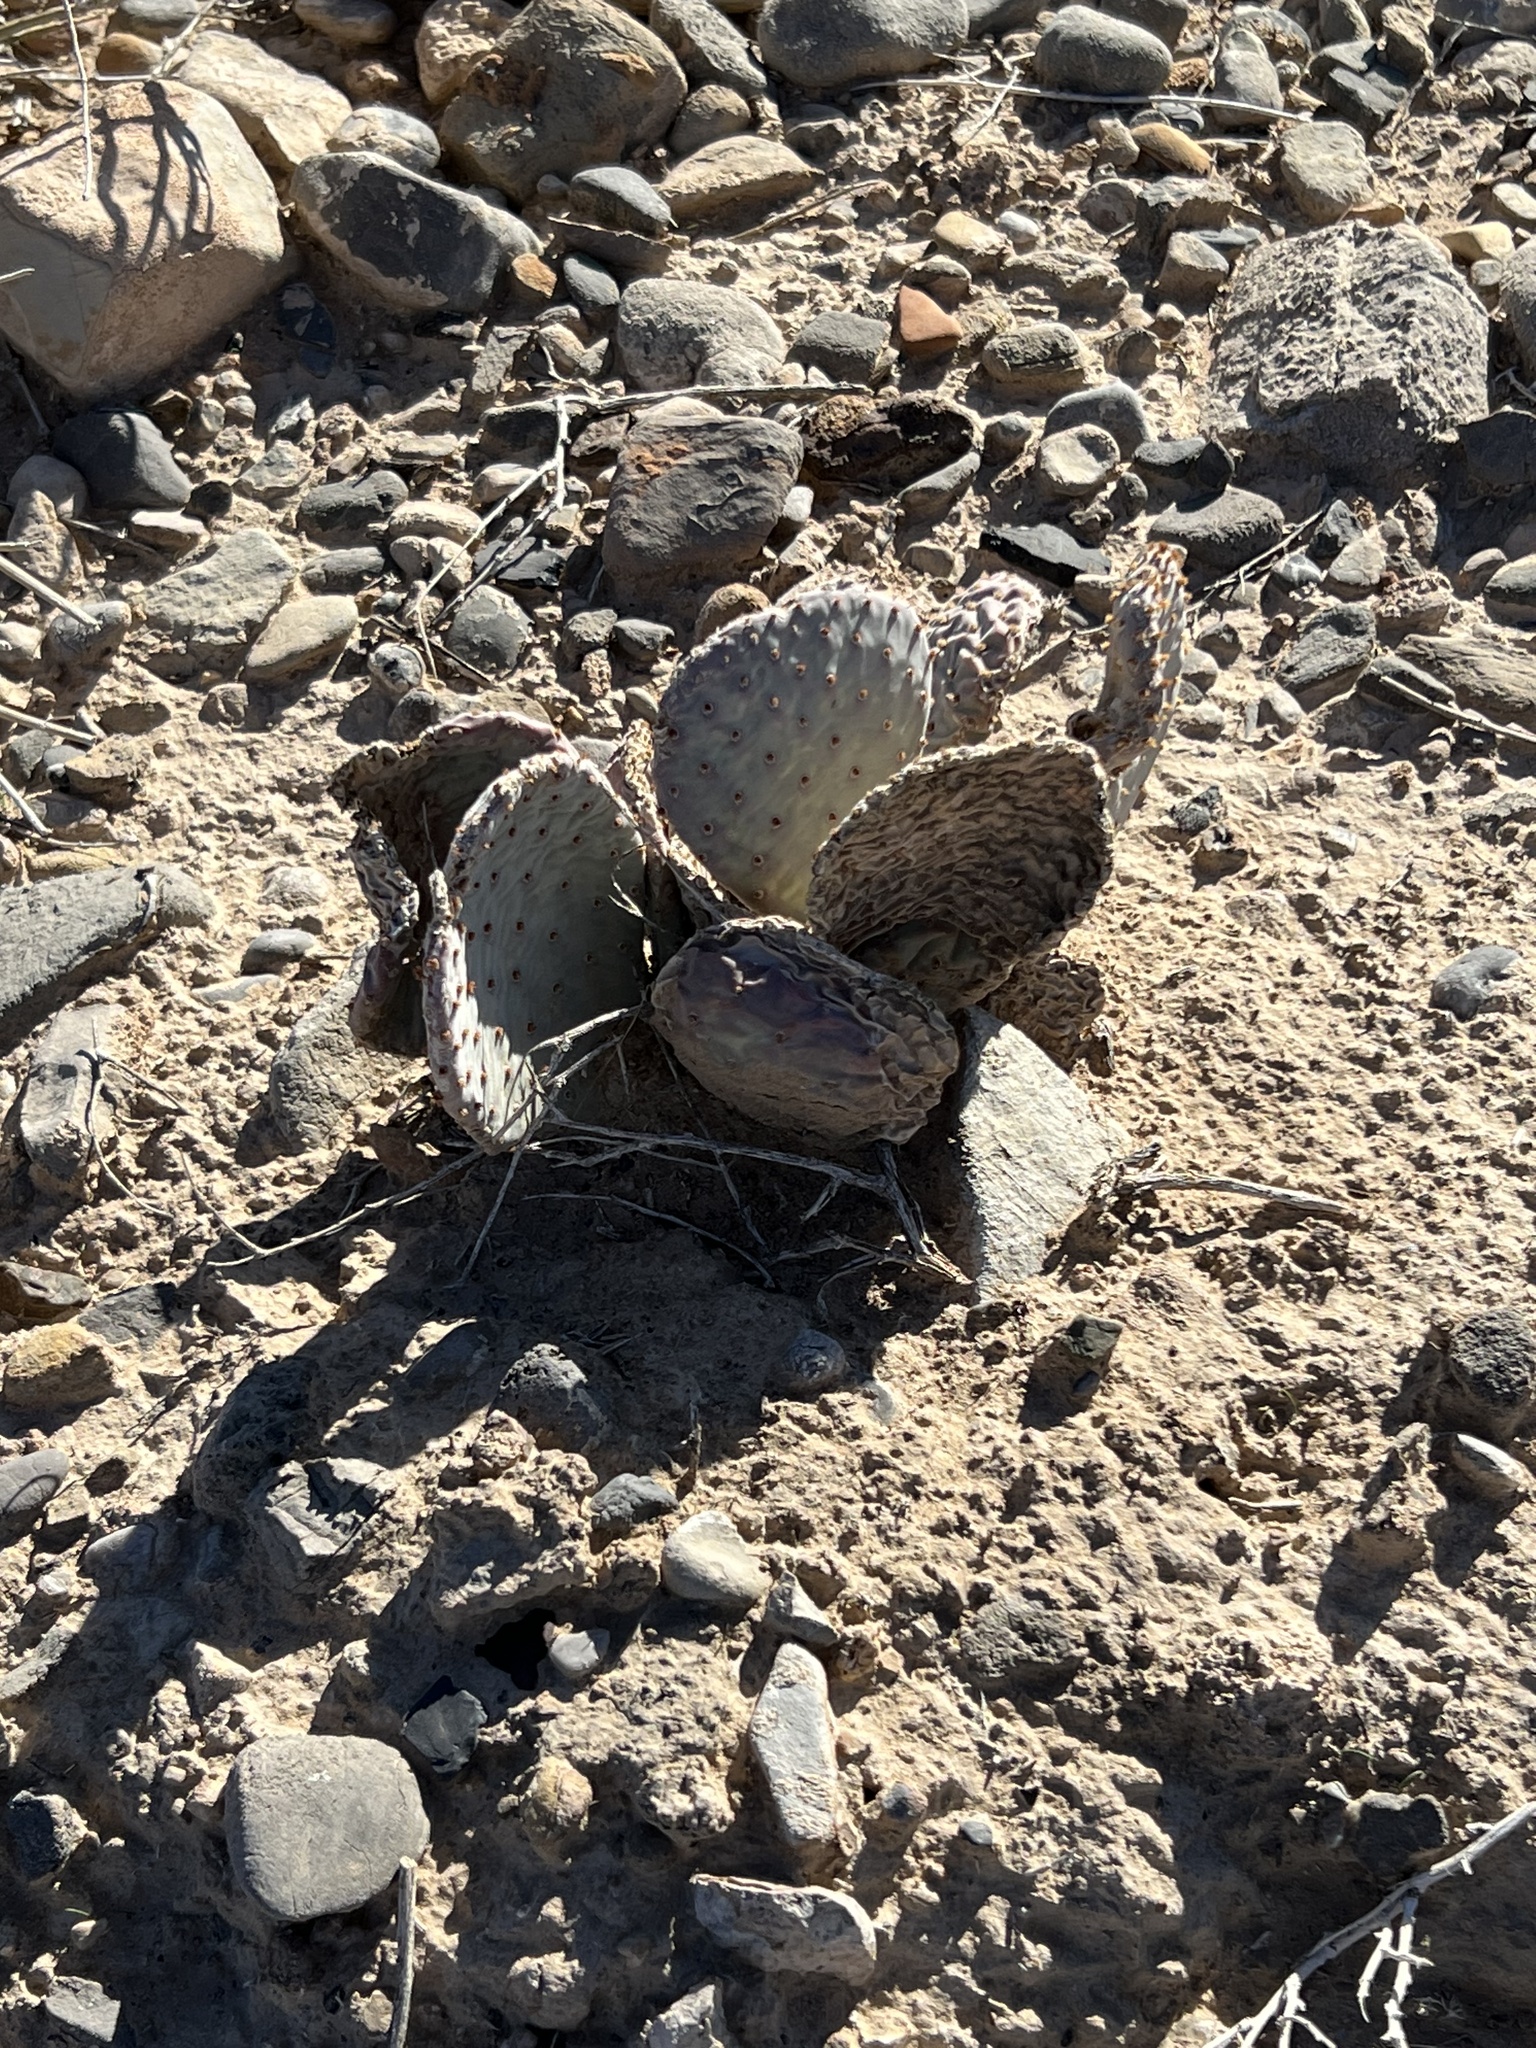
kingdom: Plantae
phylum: Tracheophyta
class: Magnoliopsida
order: Caryophyllales
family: Cactaceae
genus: Opuntia
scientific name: Opuntia basilaris
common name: Beavertail prickly-pear
